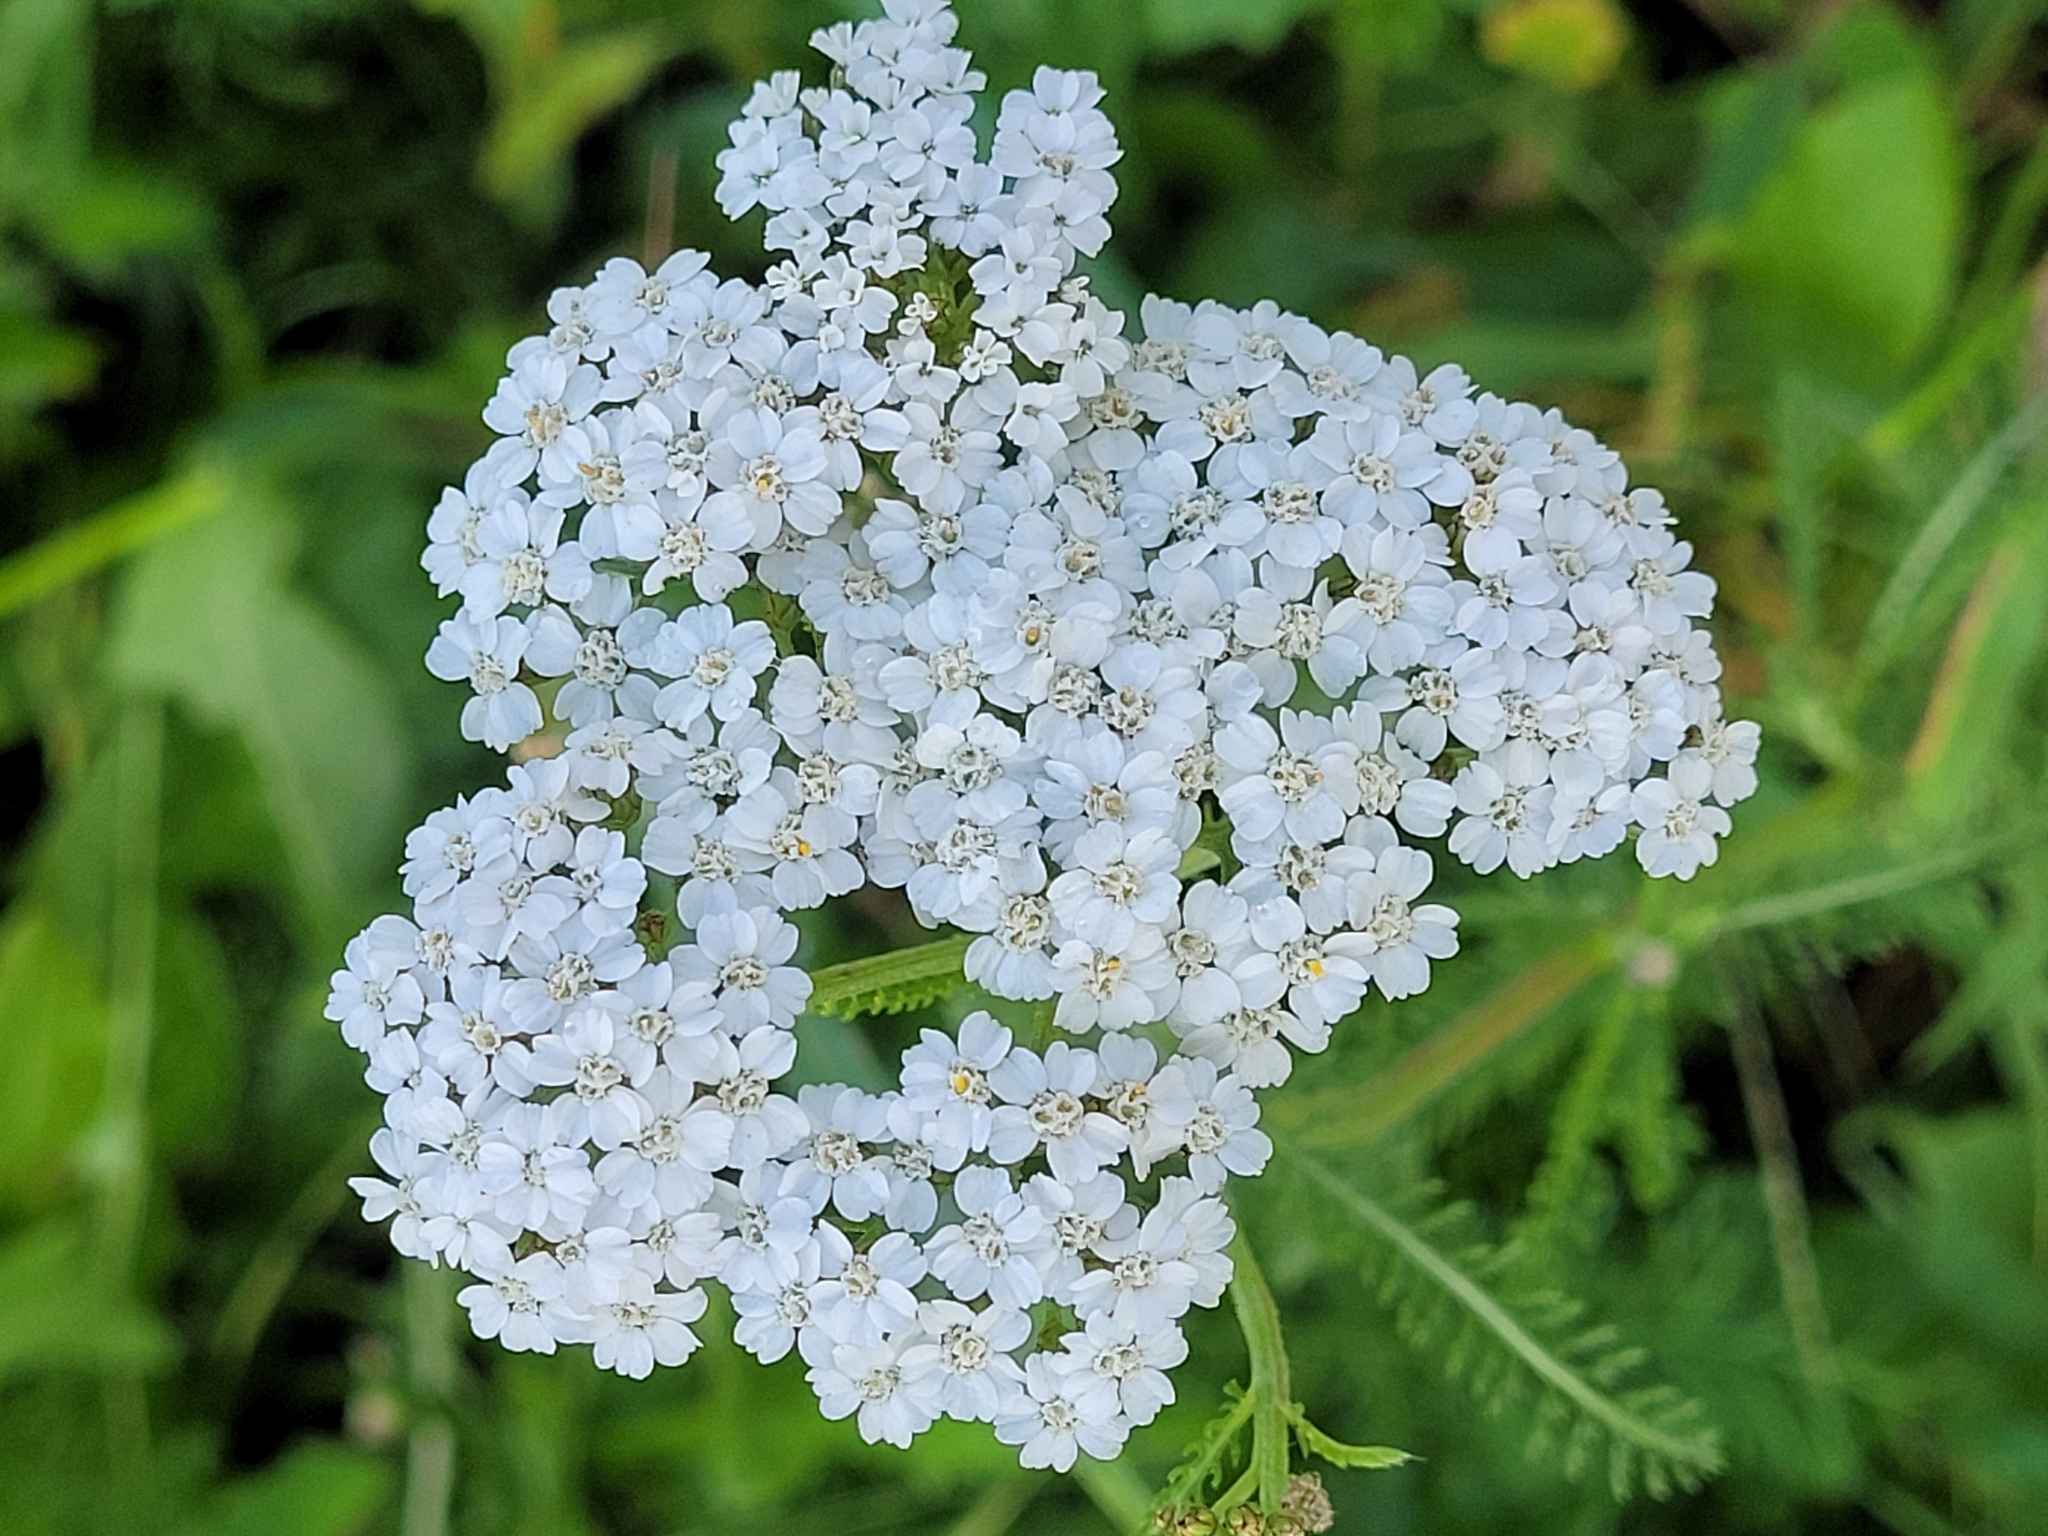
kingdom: Plantae
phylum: Tracheophyta
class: Magnoliopsida
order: Asterales
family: Asteraceae
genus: Achillea
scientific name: Achillea millefolium
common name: Yarrow
